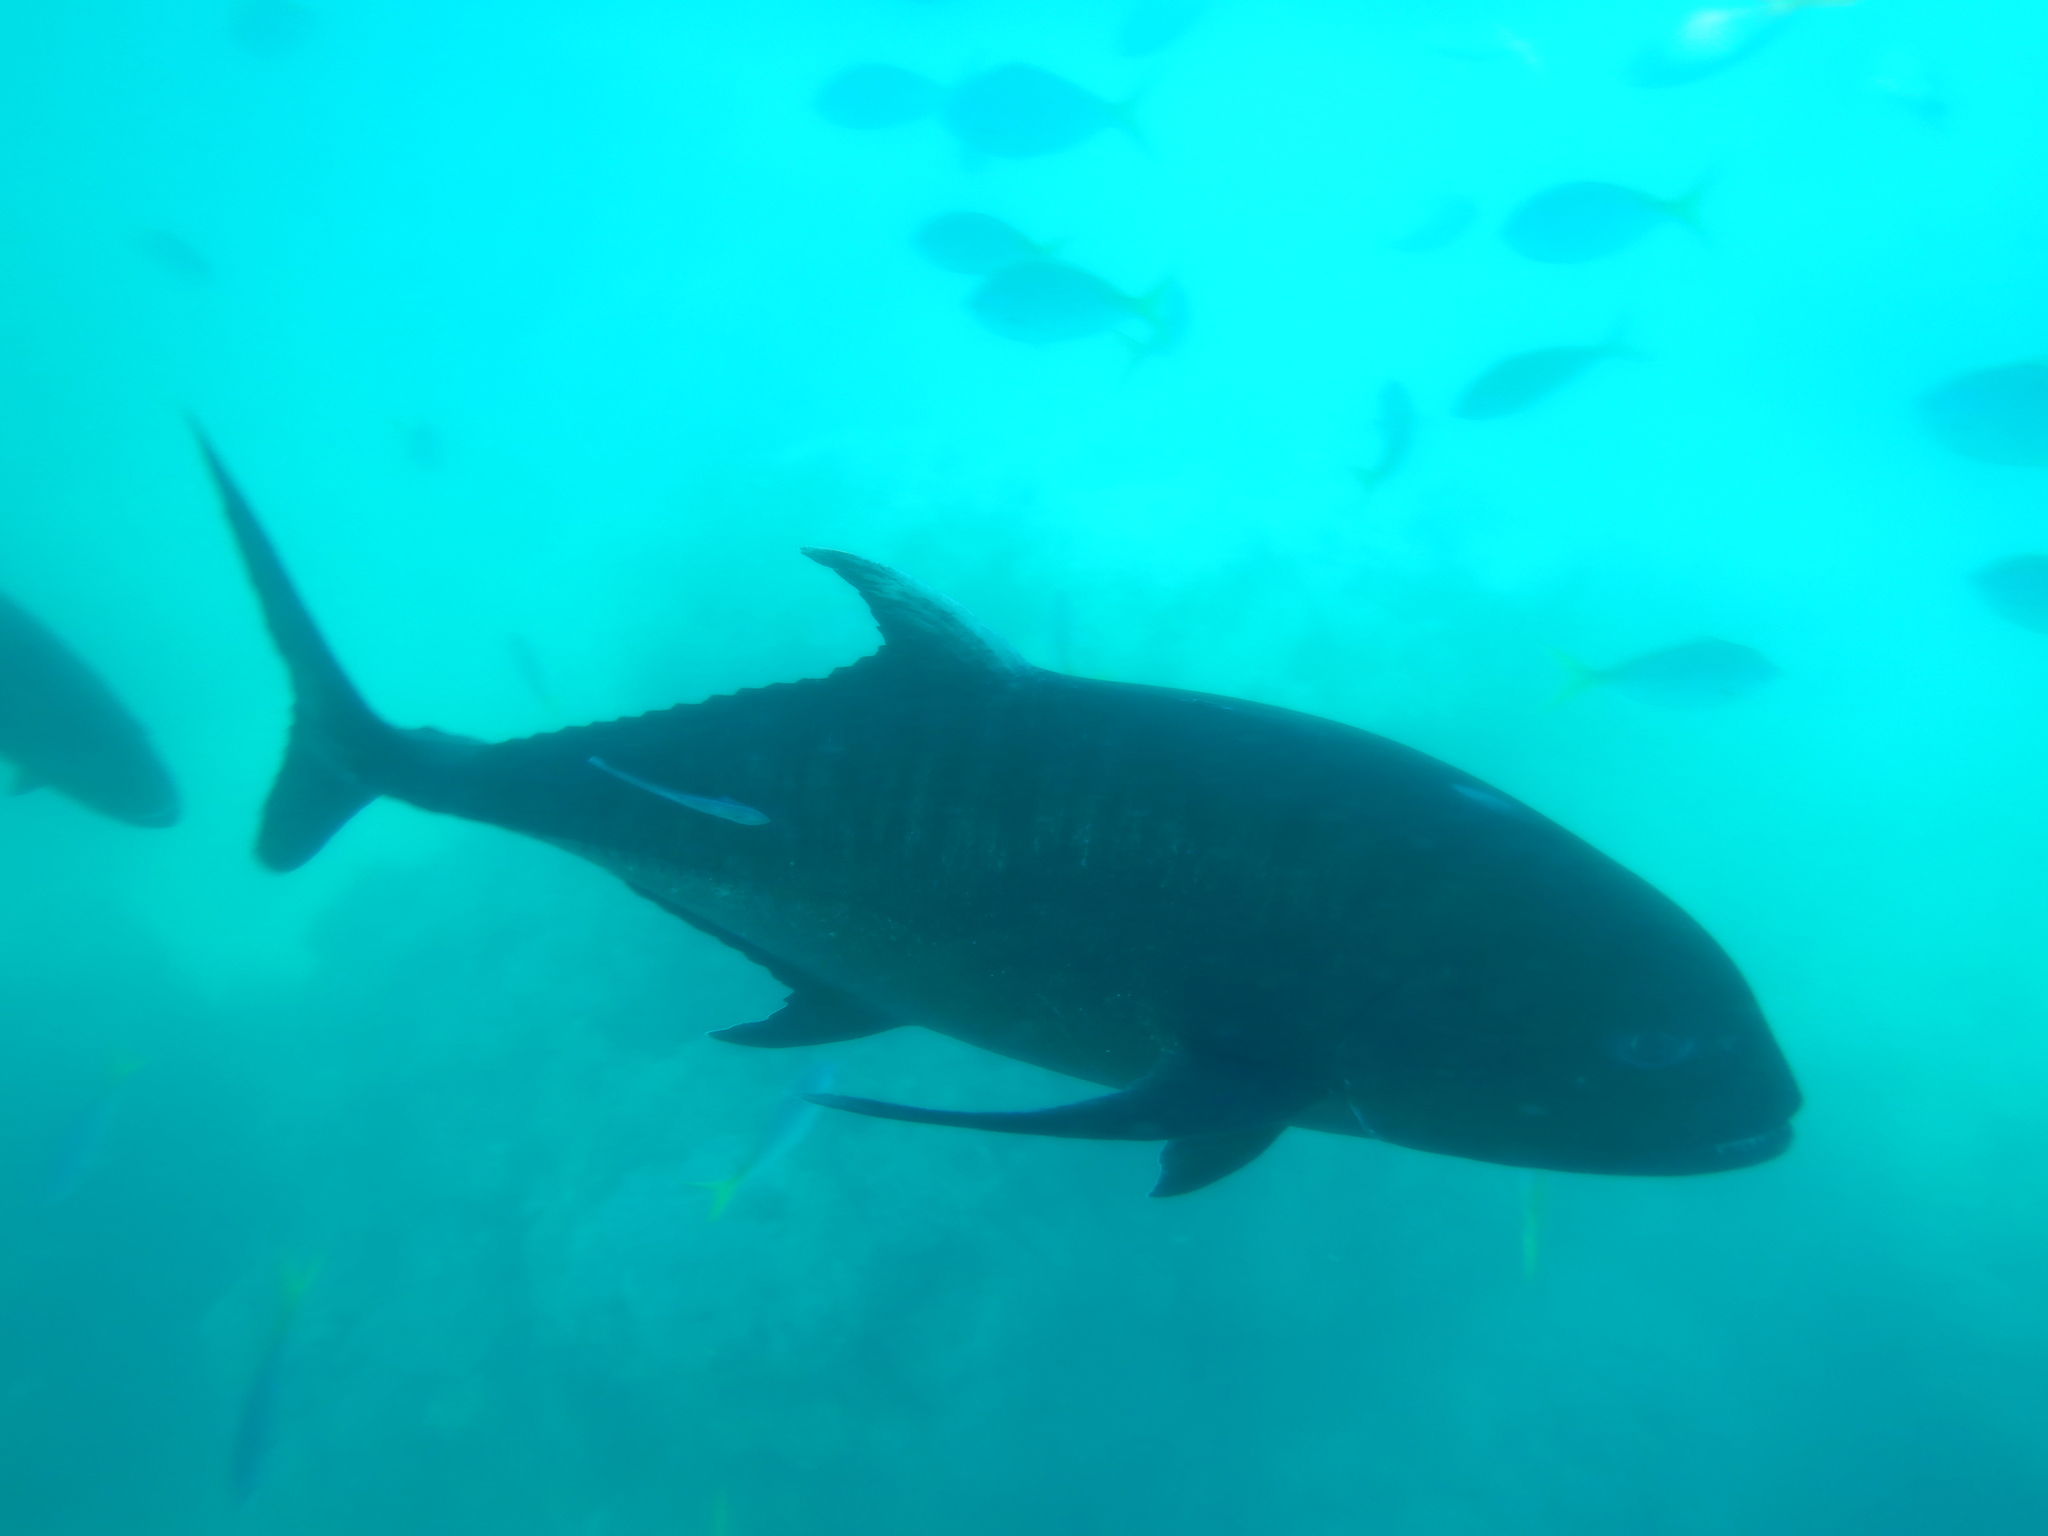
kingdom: Animalia
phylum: Chordata
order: Perciformes
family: Carangidae
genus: Caranx
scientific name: Caranx ignobilis
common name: Giant trevally
